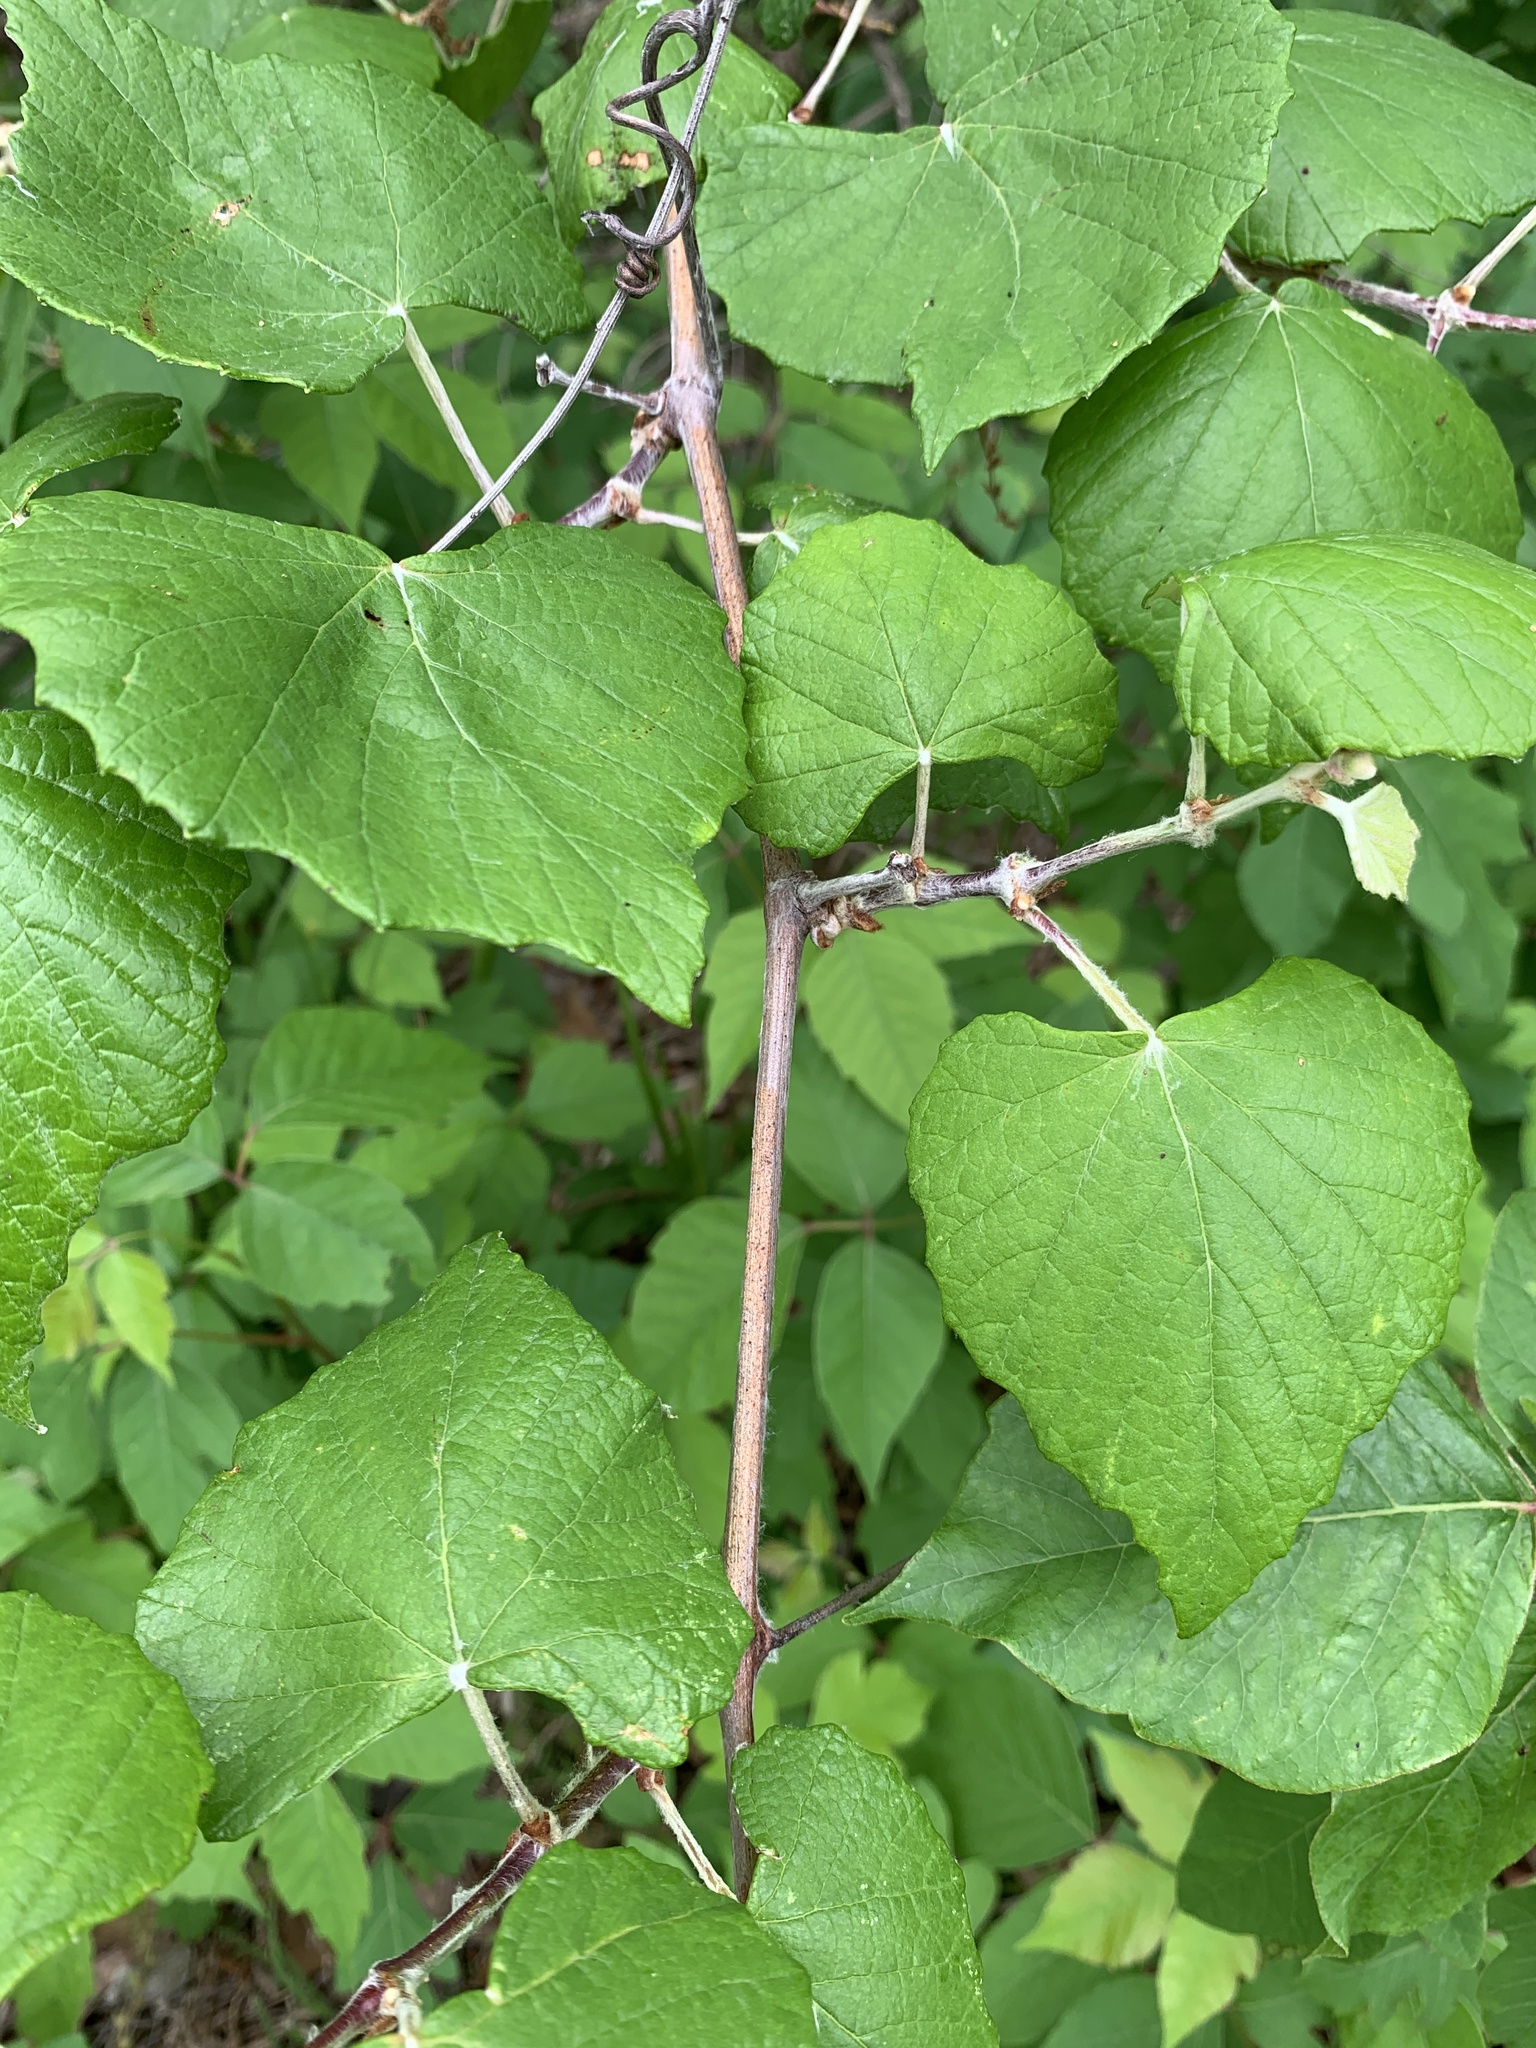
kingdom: Plantae
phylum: Tracheophyta
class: Magnoliopsida
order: Vitales
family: Vitaceae
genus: Vitis
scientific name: Vitis mustangensis
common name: Mustang grape
